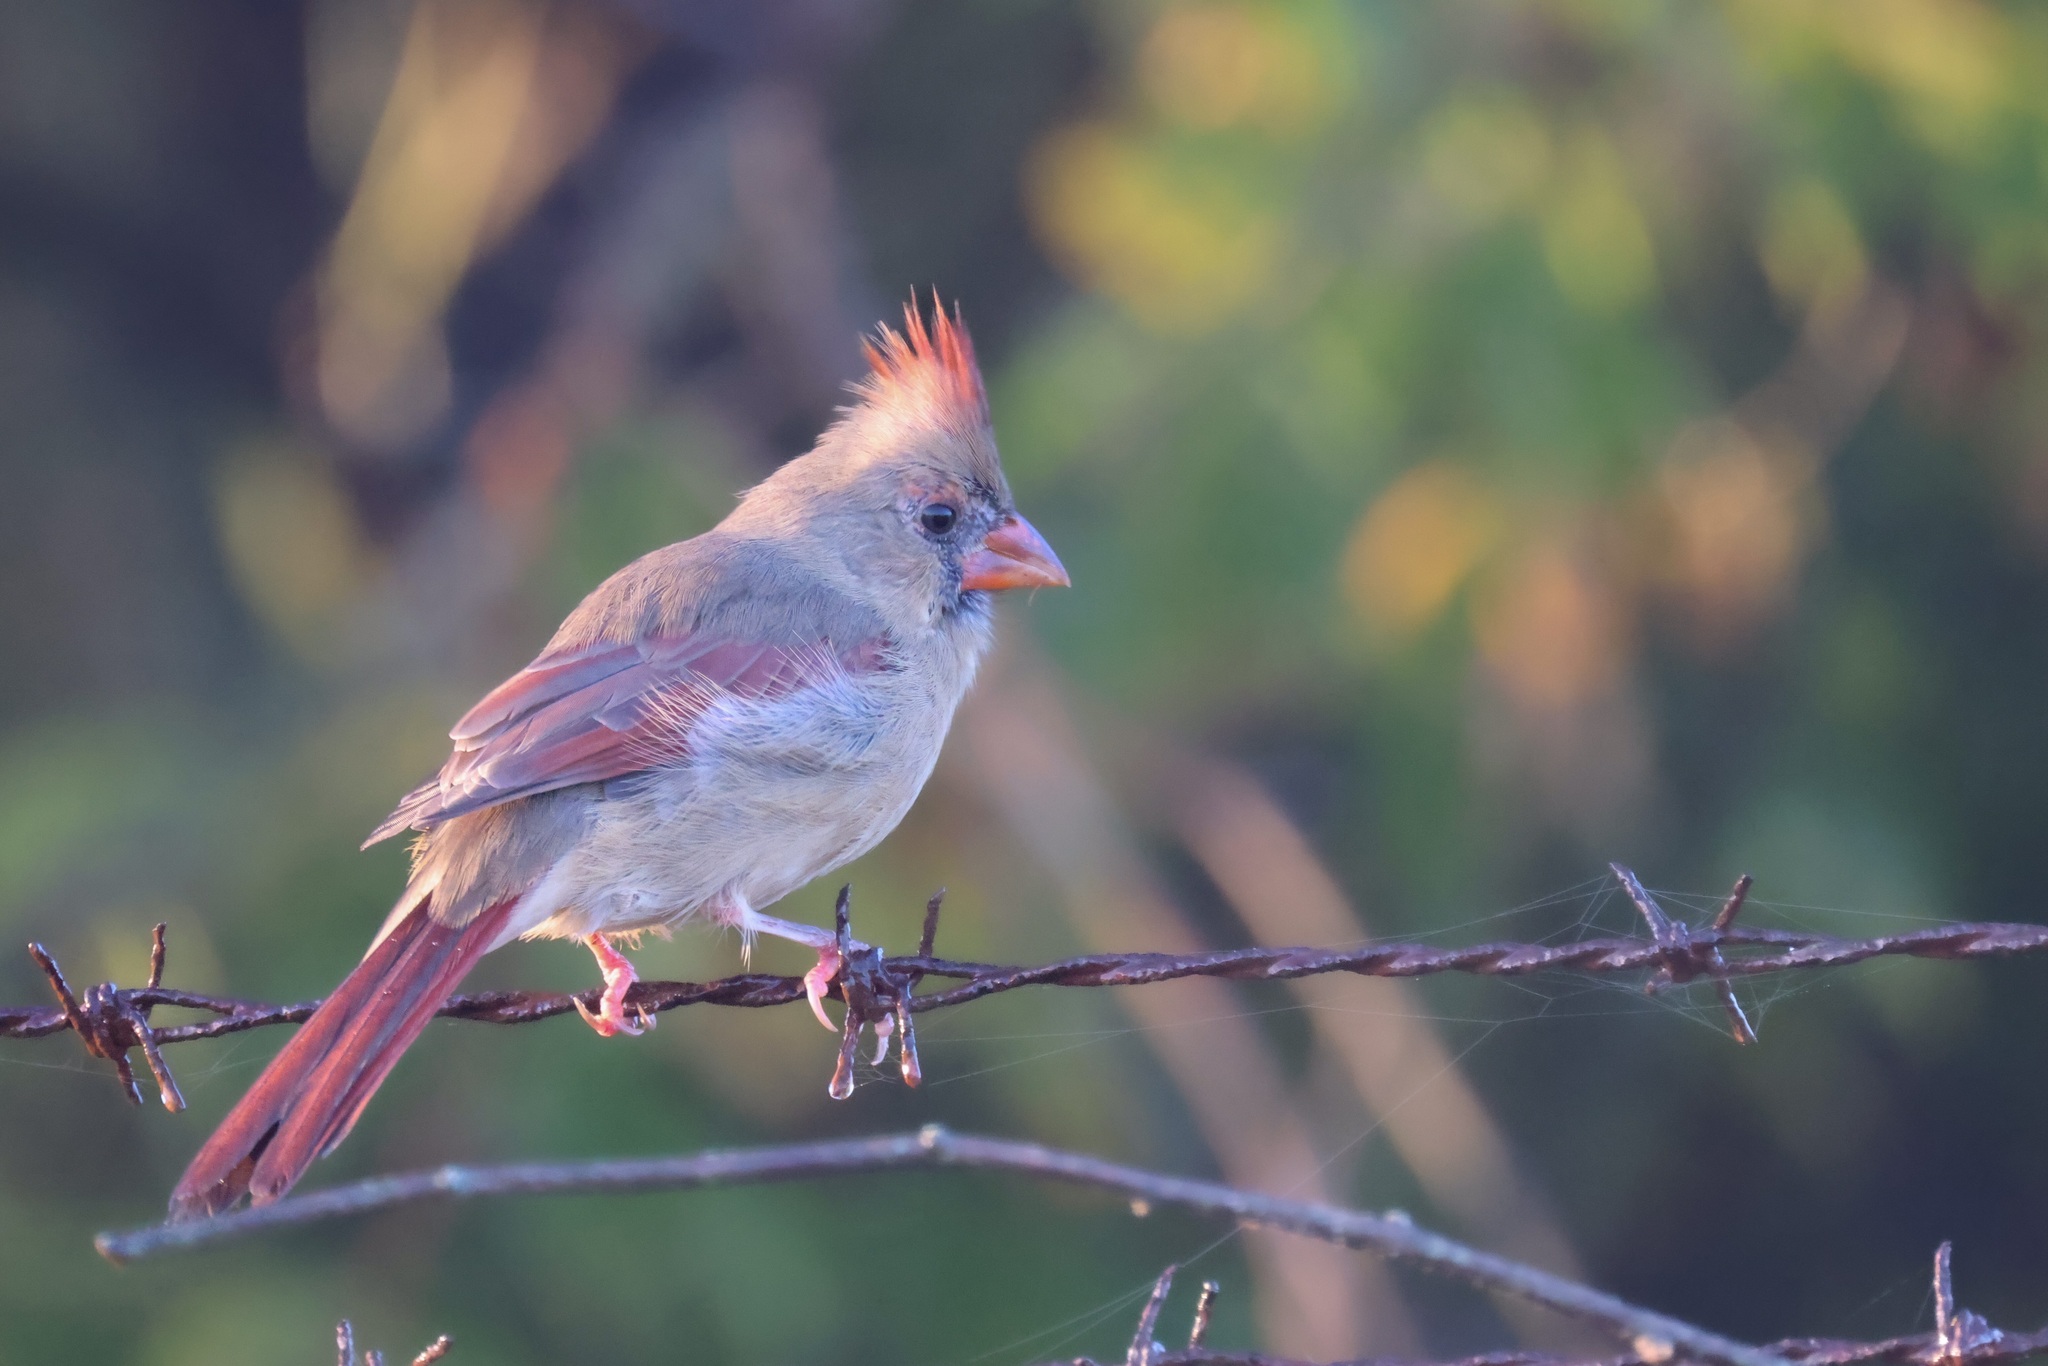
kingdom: Animalia
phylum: Chordata
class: Aves
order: Passeriformes
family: Cardinalidae
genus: Cardinalis
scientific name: Cardinalis cardinalis
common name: Northern cardinal
